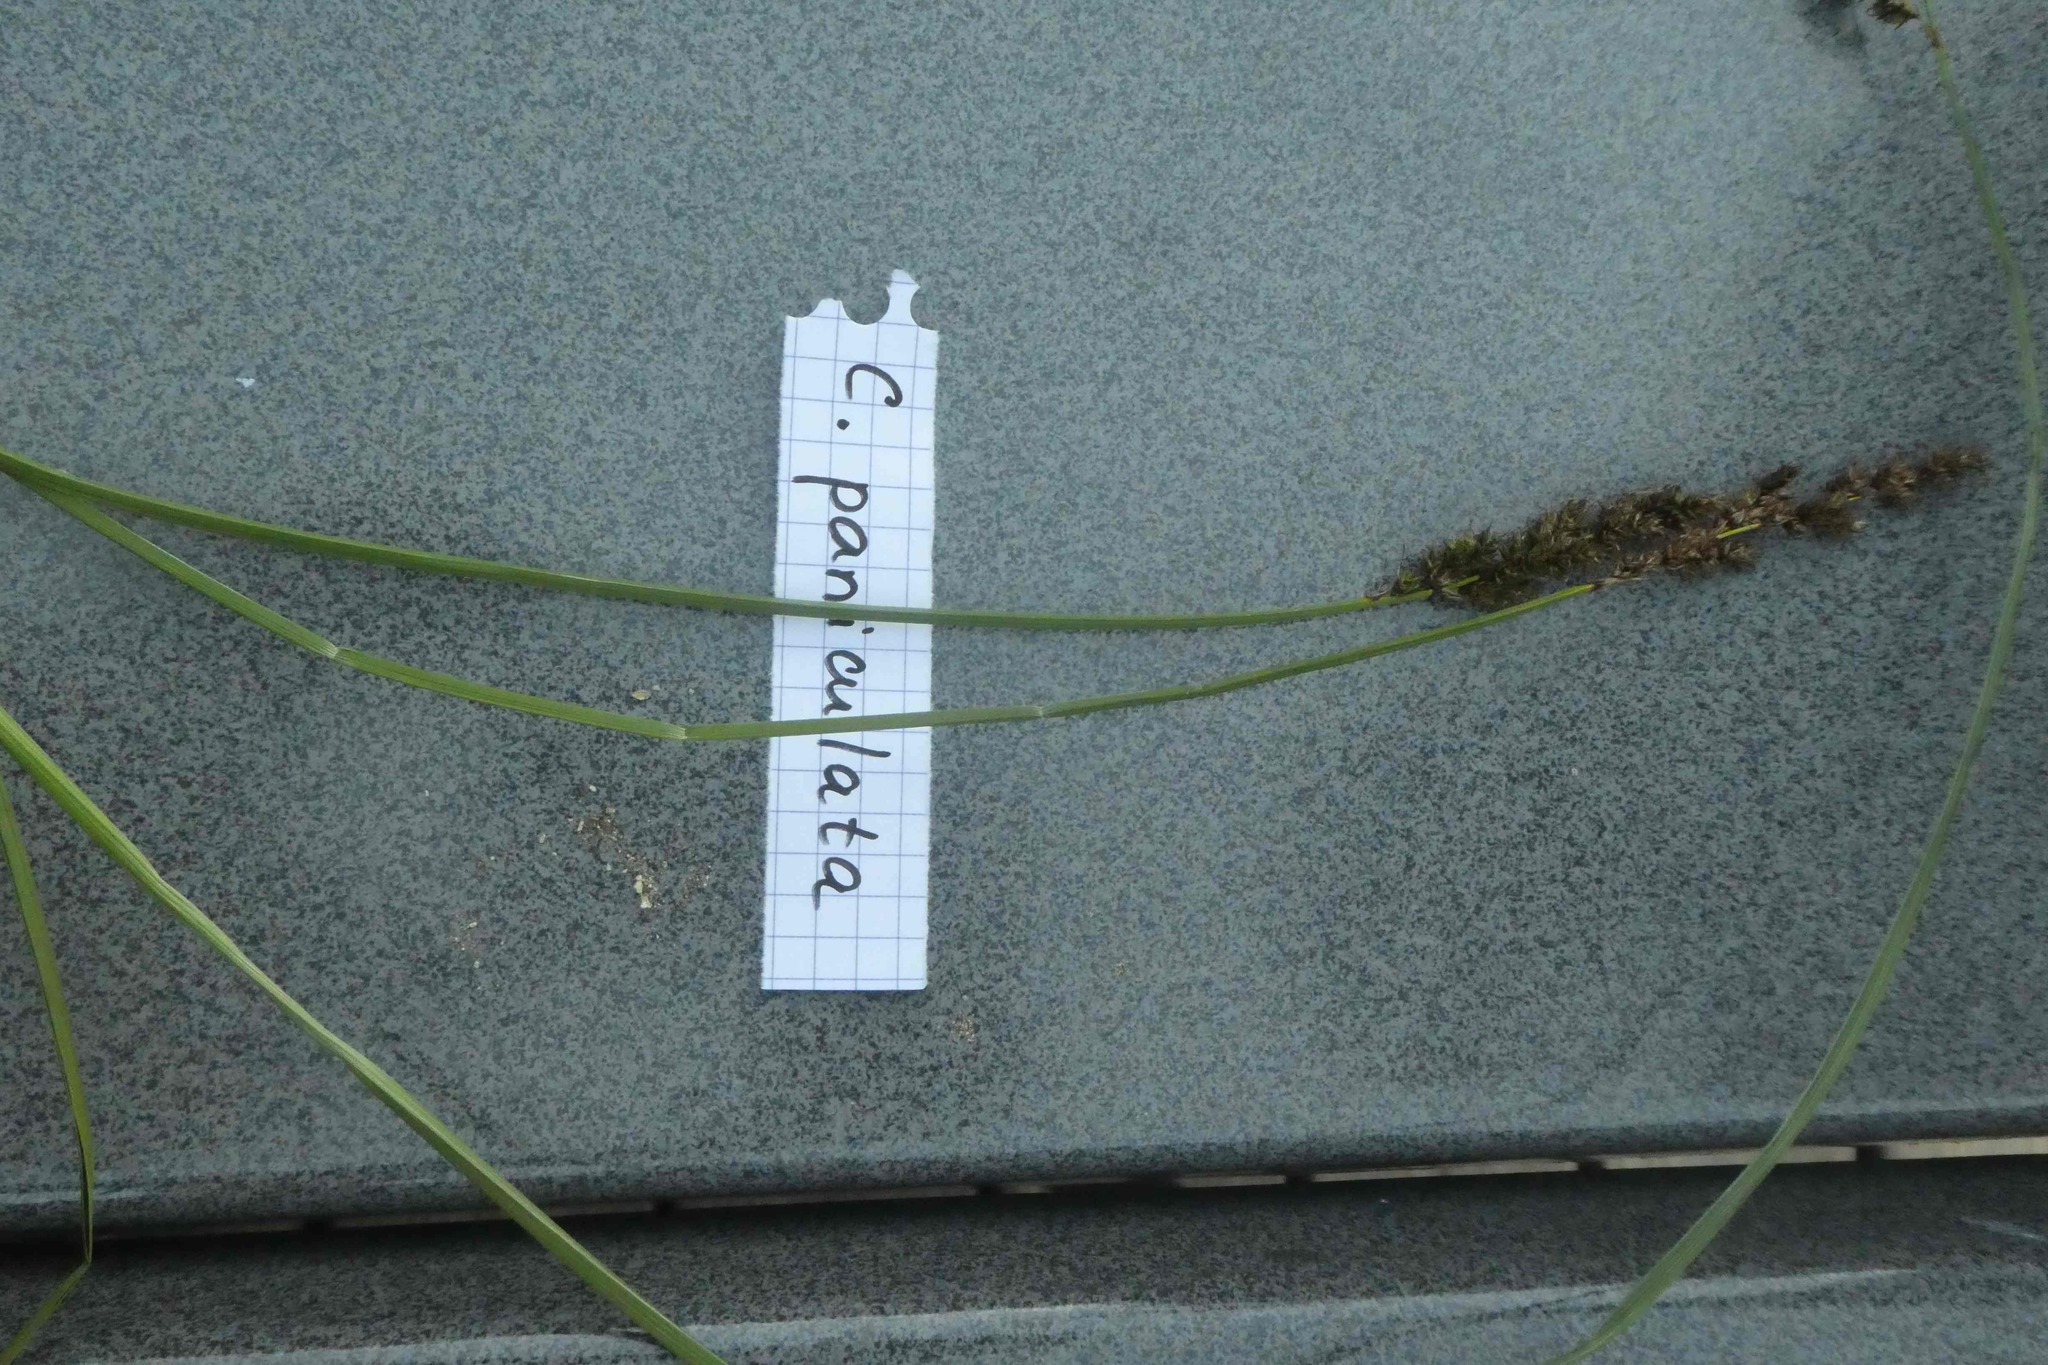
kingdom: Plantae
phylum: Tracheophyta
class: Liliopsida
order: Poales
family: Cyperaceae
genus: Carex
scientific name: Carex paniculata
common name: Greater tussock-sedge
